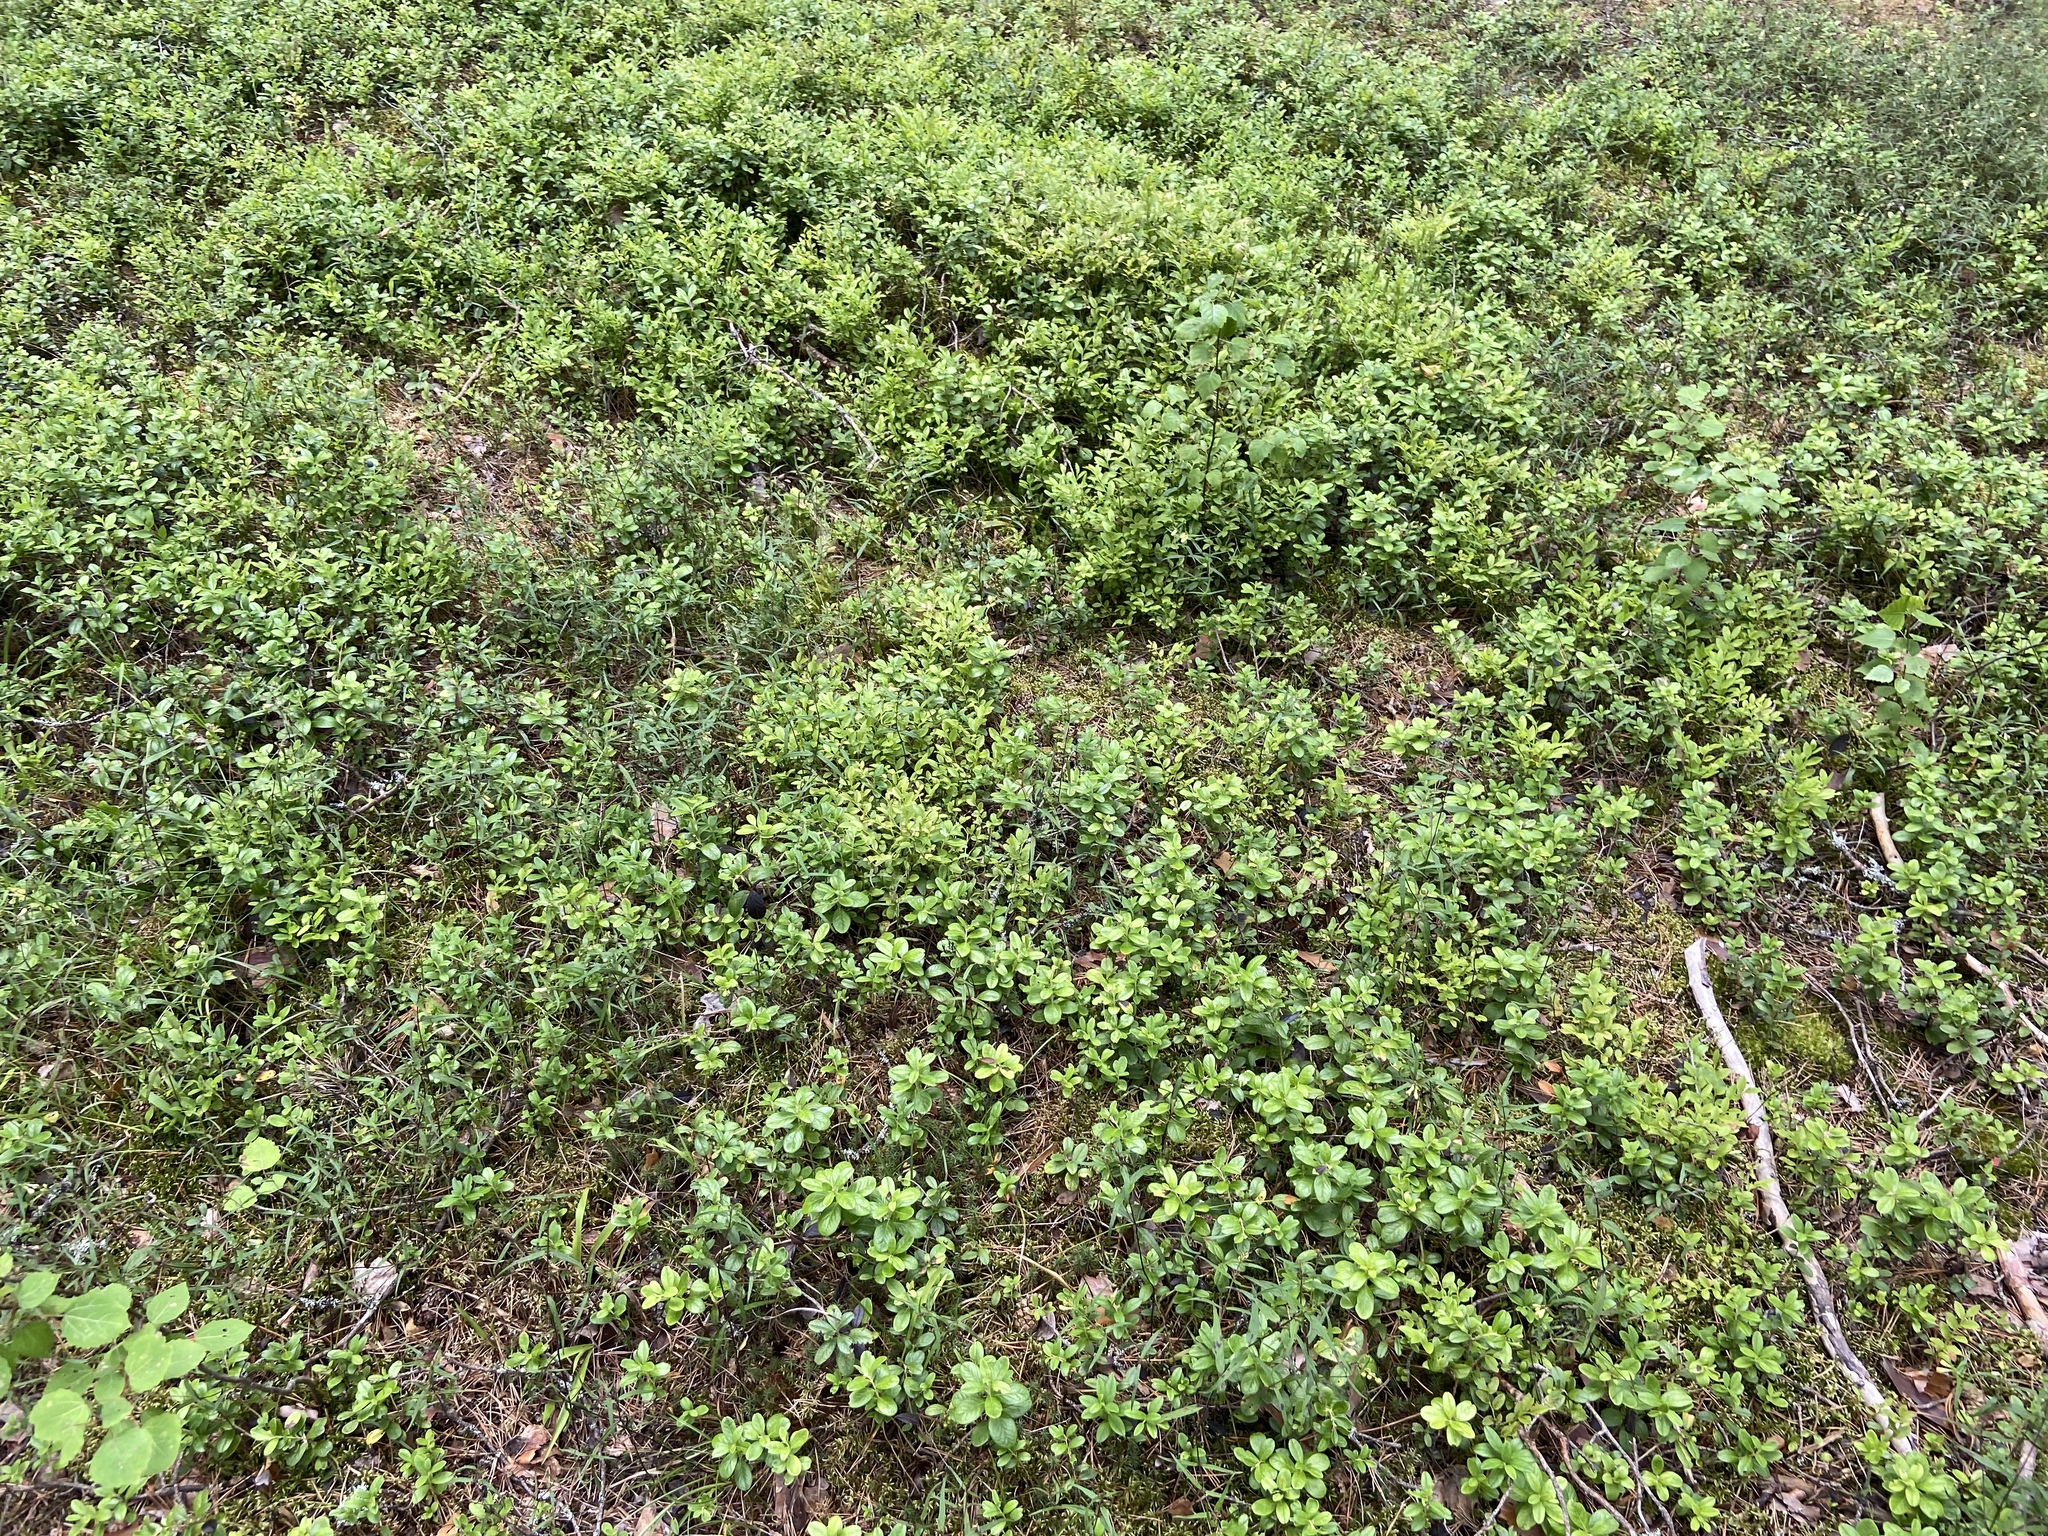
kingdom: Plantae
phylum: Tracheophyta
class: Magnoliopsida
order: Ericales
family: Ericaceae
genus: Vaccinium
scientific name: Vaccinium vitis-idaea
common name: Cowberry
